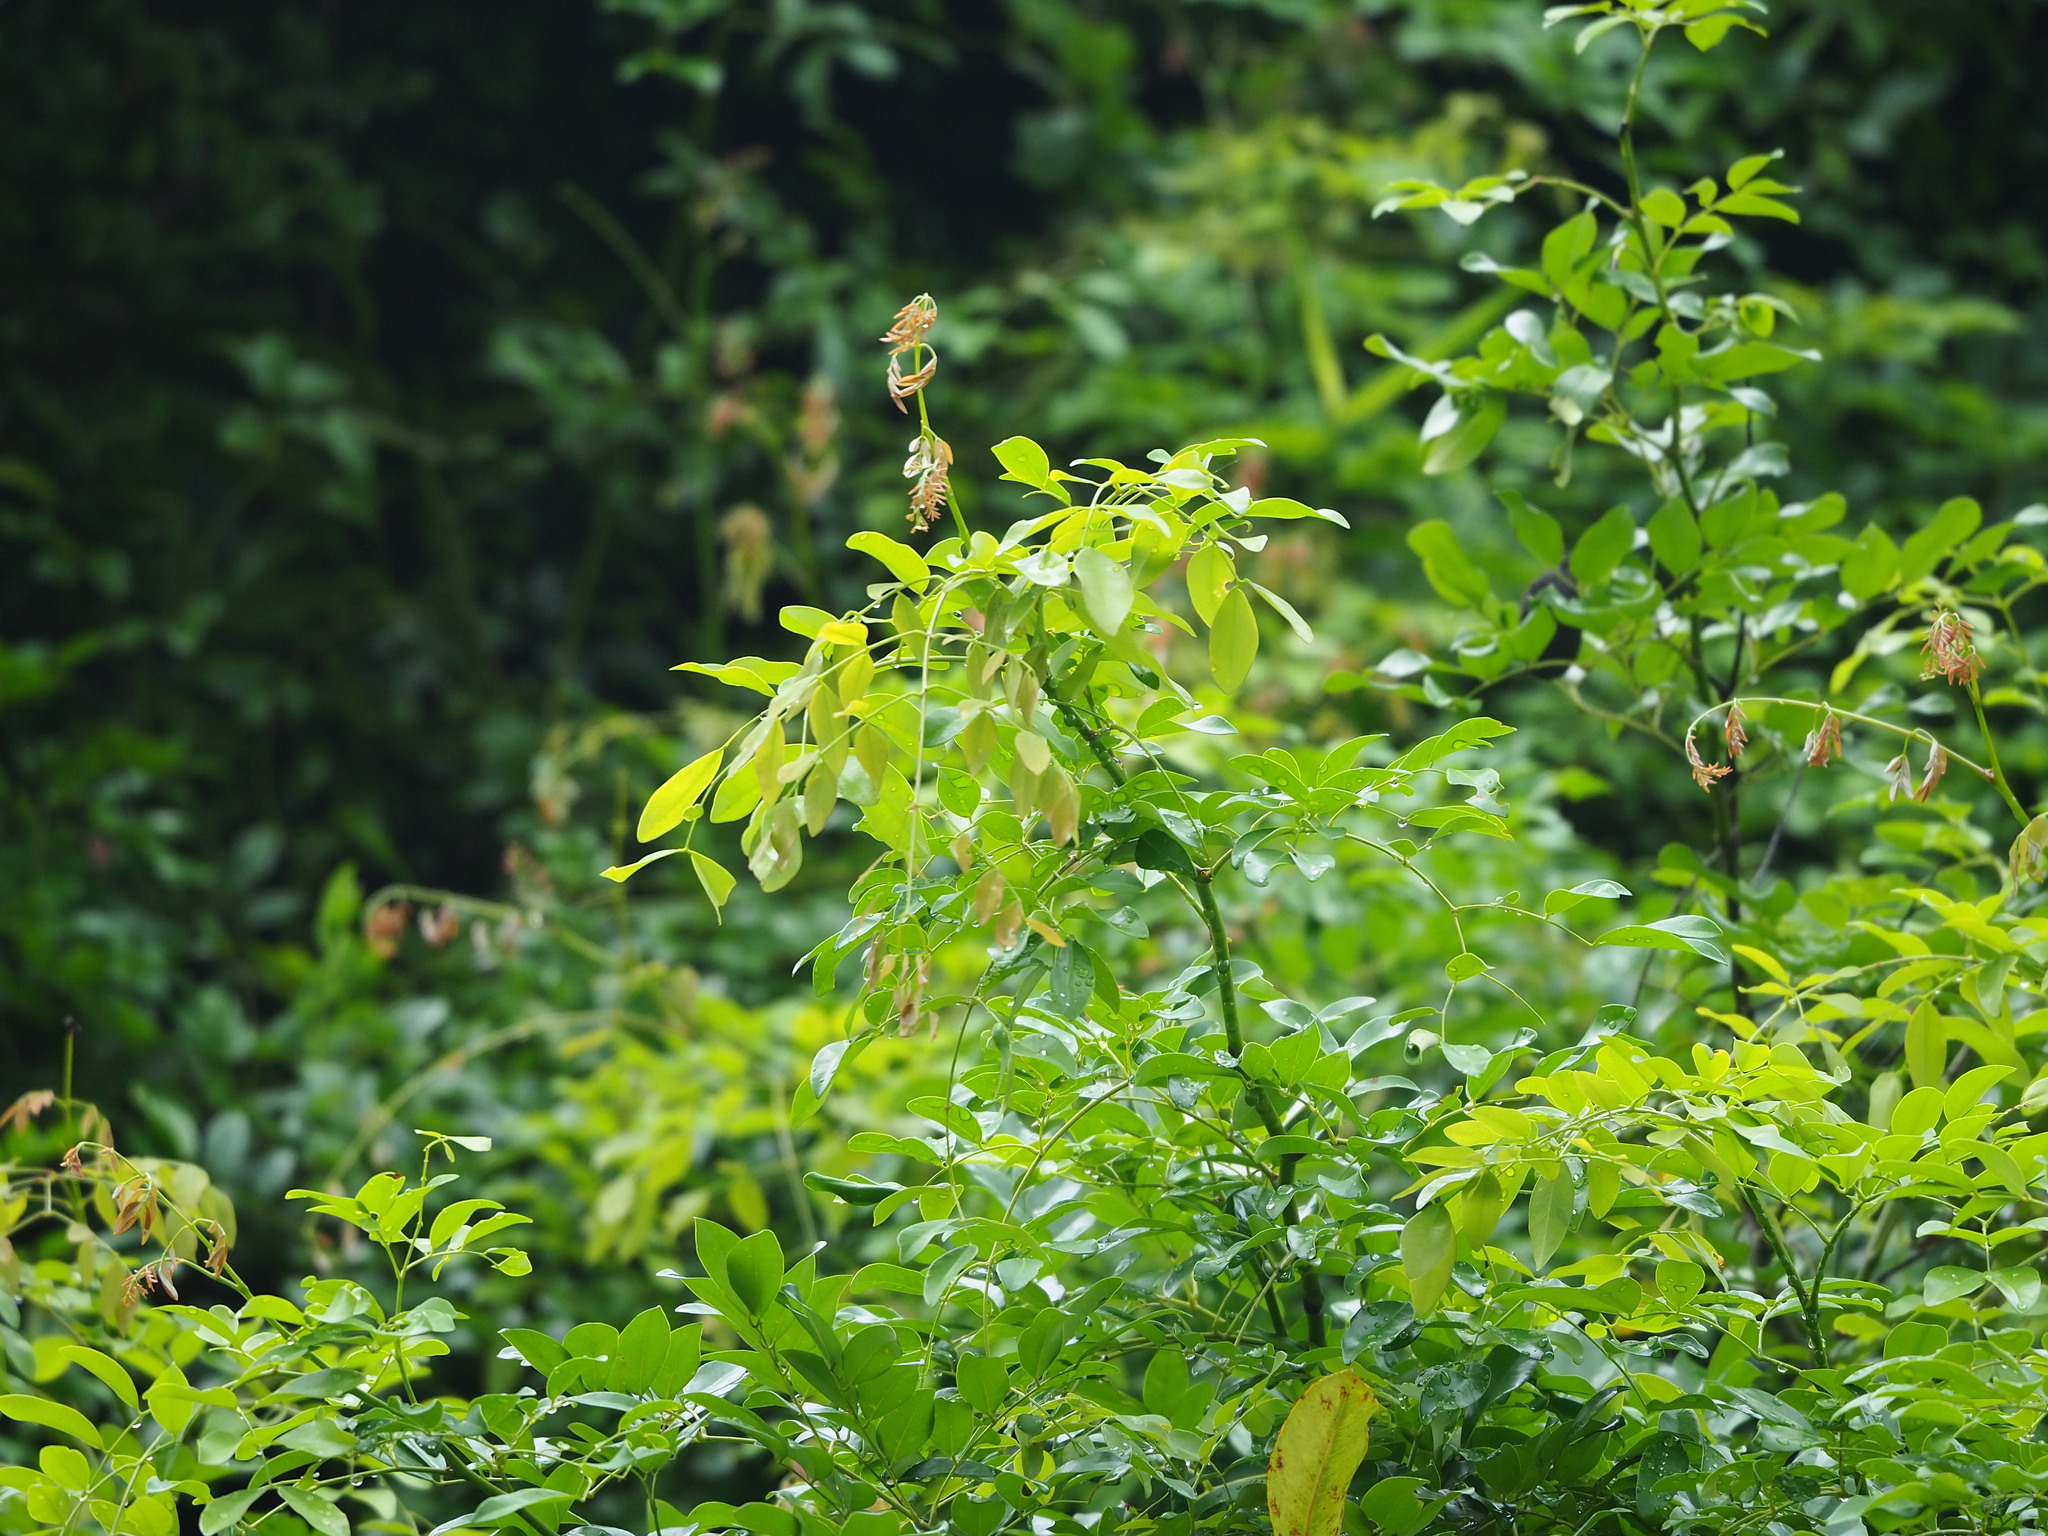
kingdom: Plantae
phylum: Tracheophyta
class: Magnoliopsida
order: Fabales
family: Fabaceae
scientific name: Fabaceae
